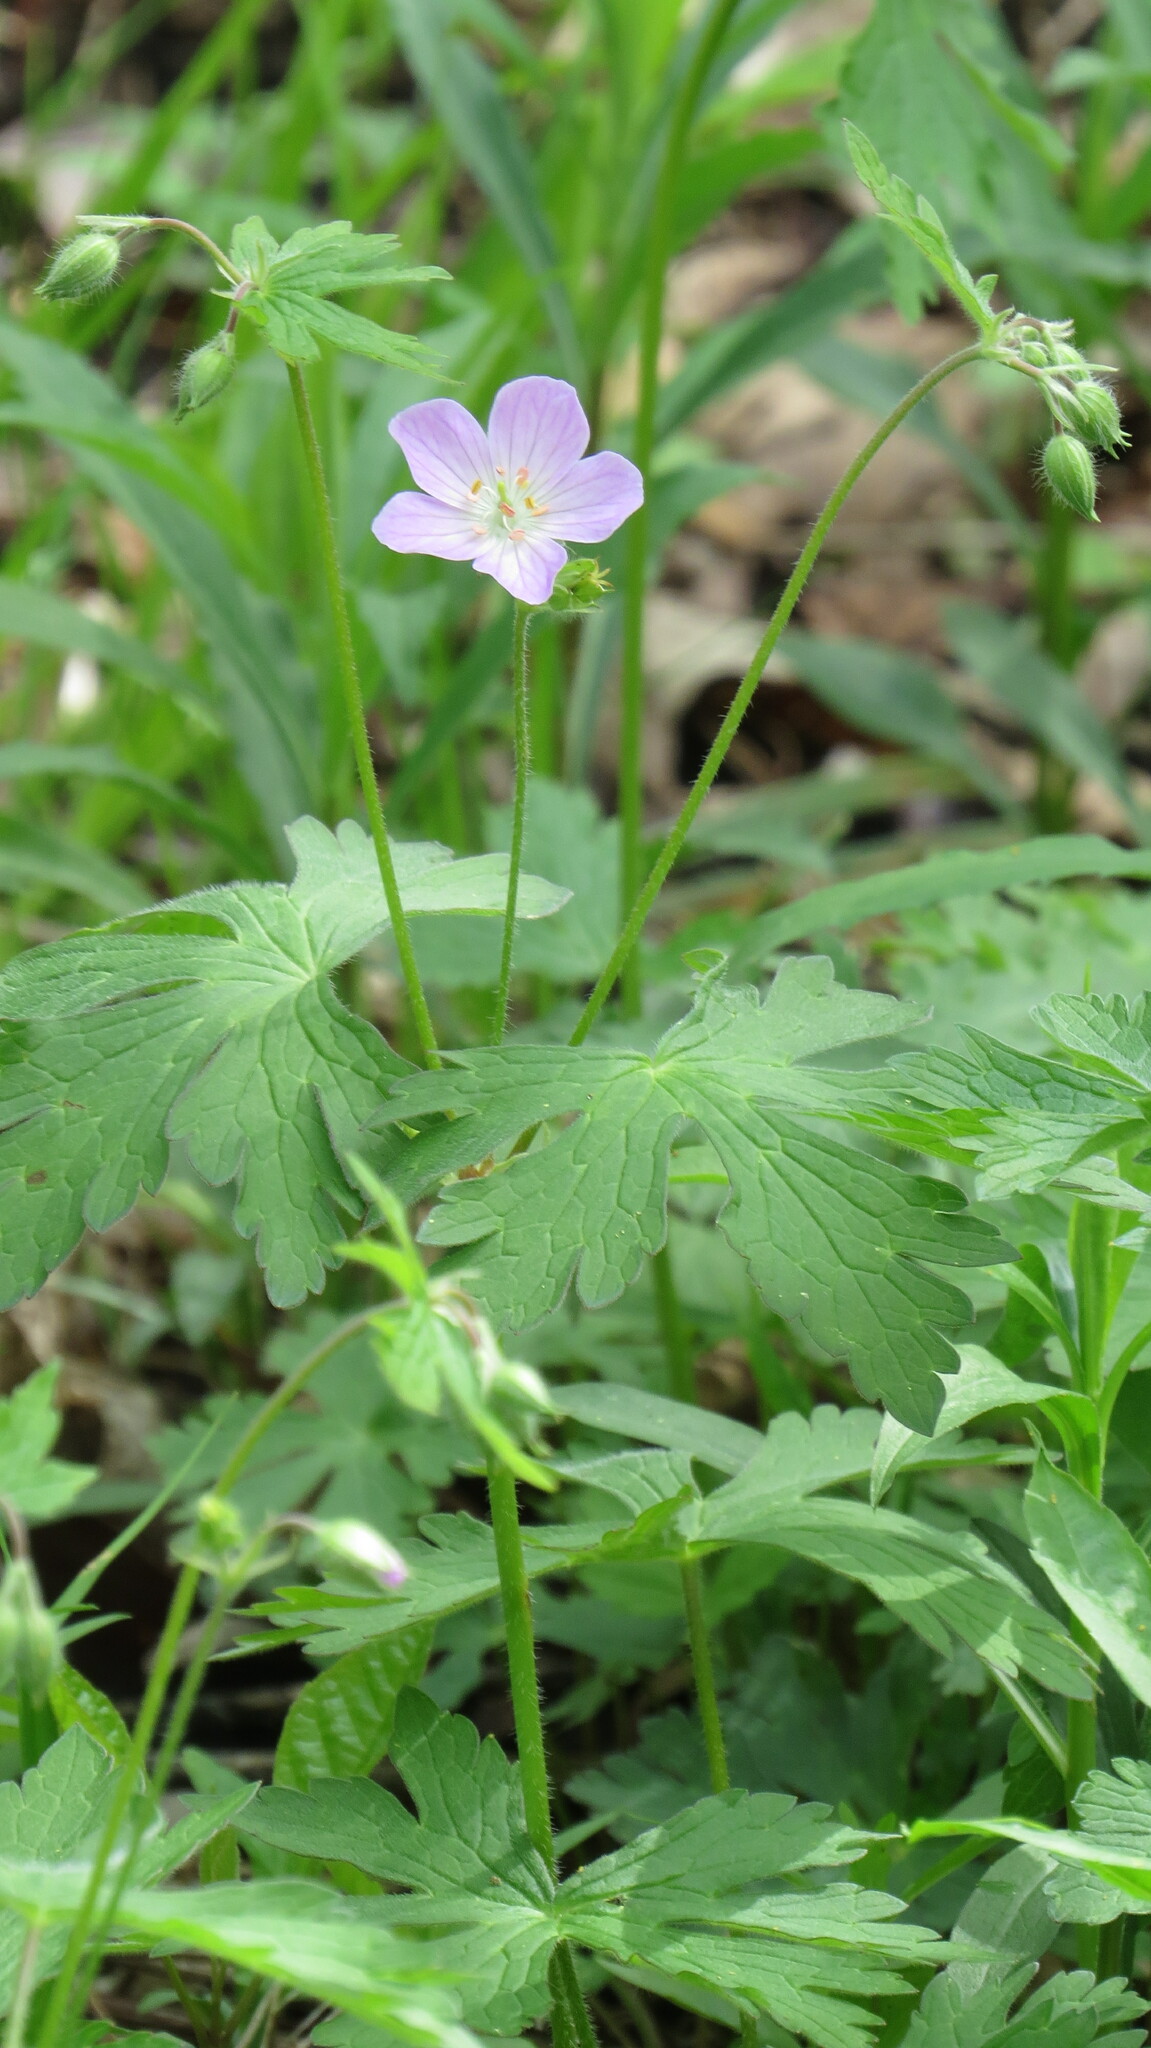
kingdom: Plantae
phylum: Tracheophyta
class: Magnoliopsida
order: Geraniales
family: Geraniaceae
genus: Geranium
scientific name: Geranium maculatum
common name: Spotted geranium
